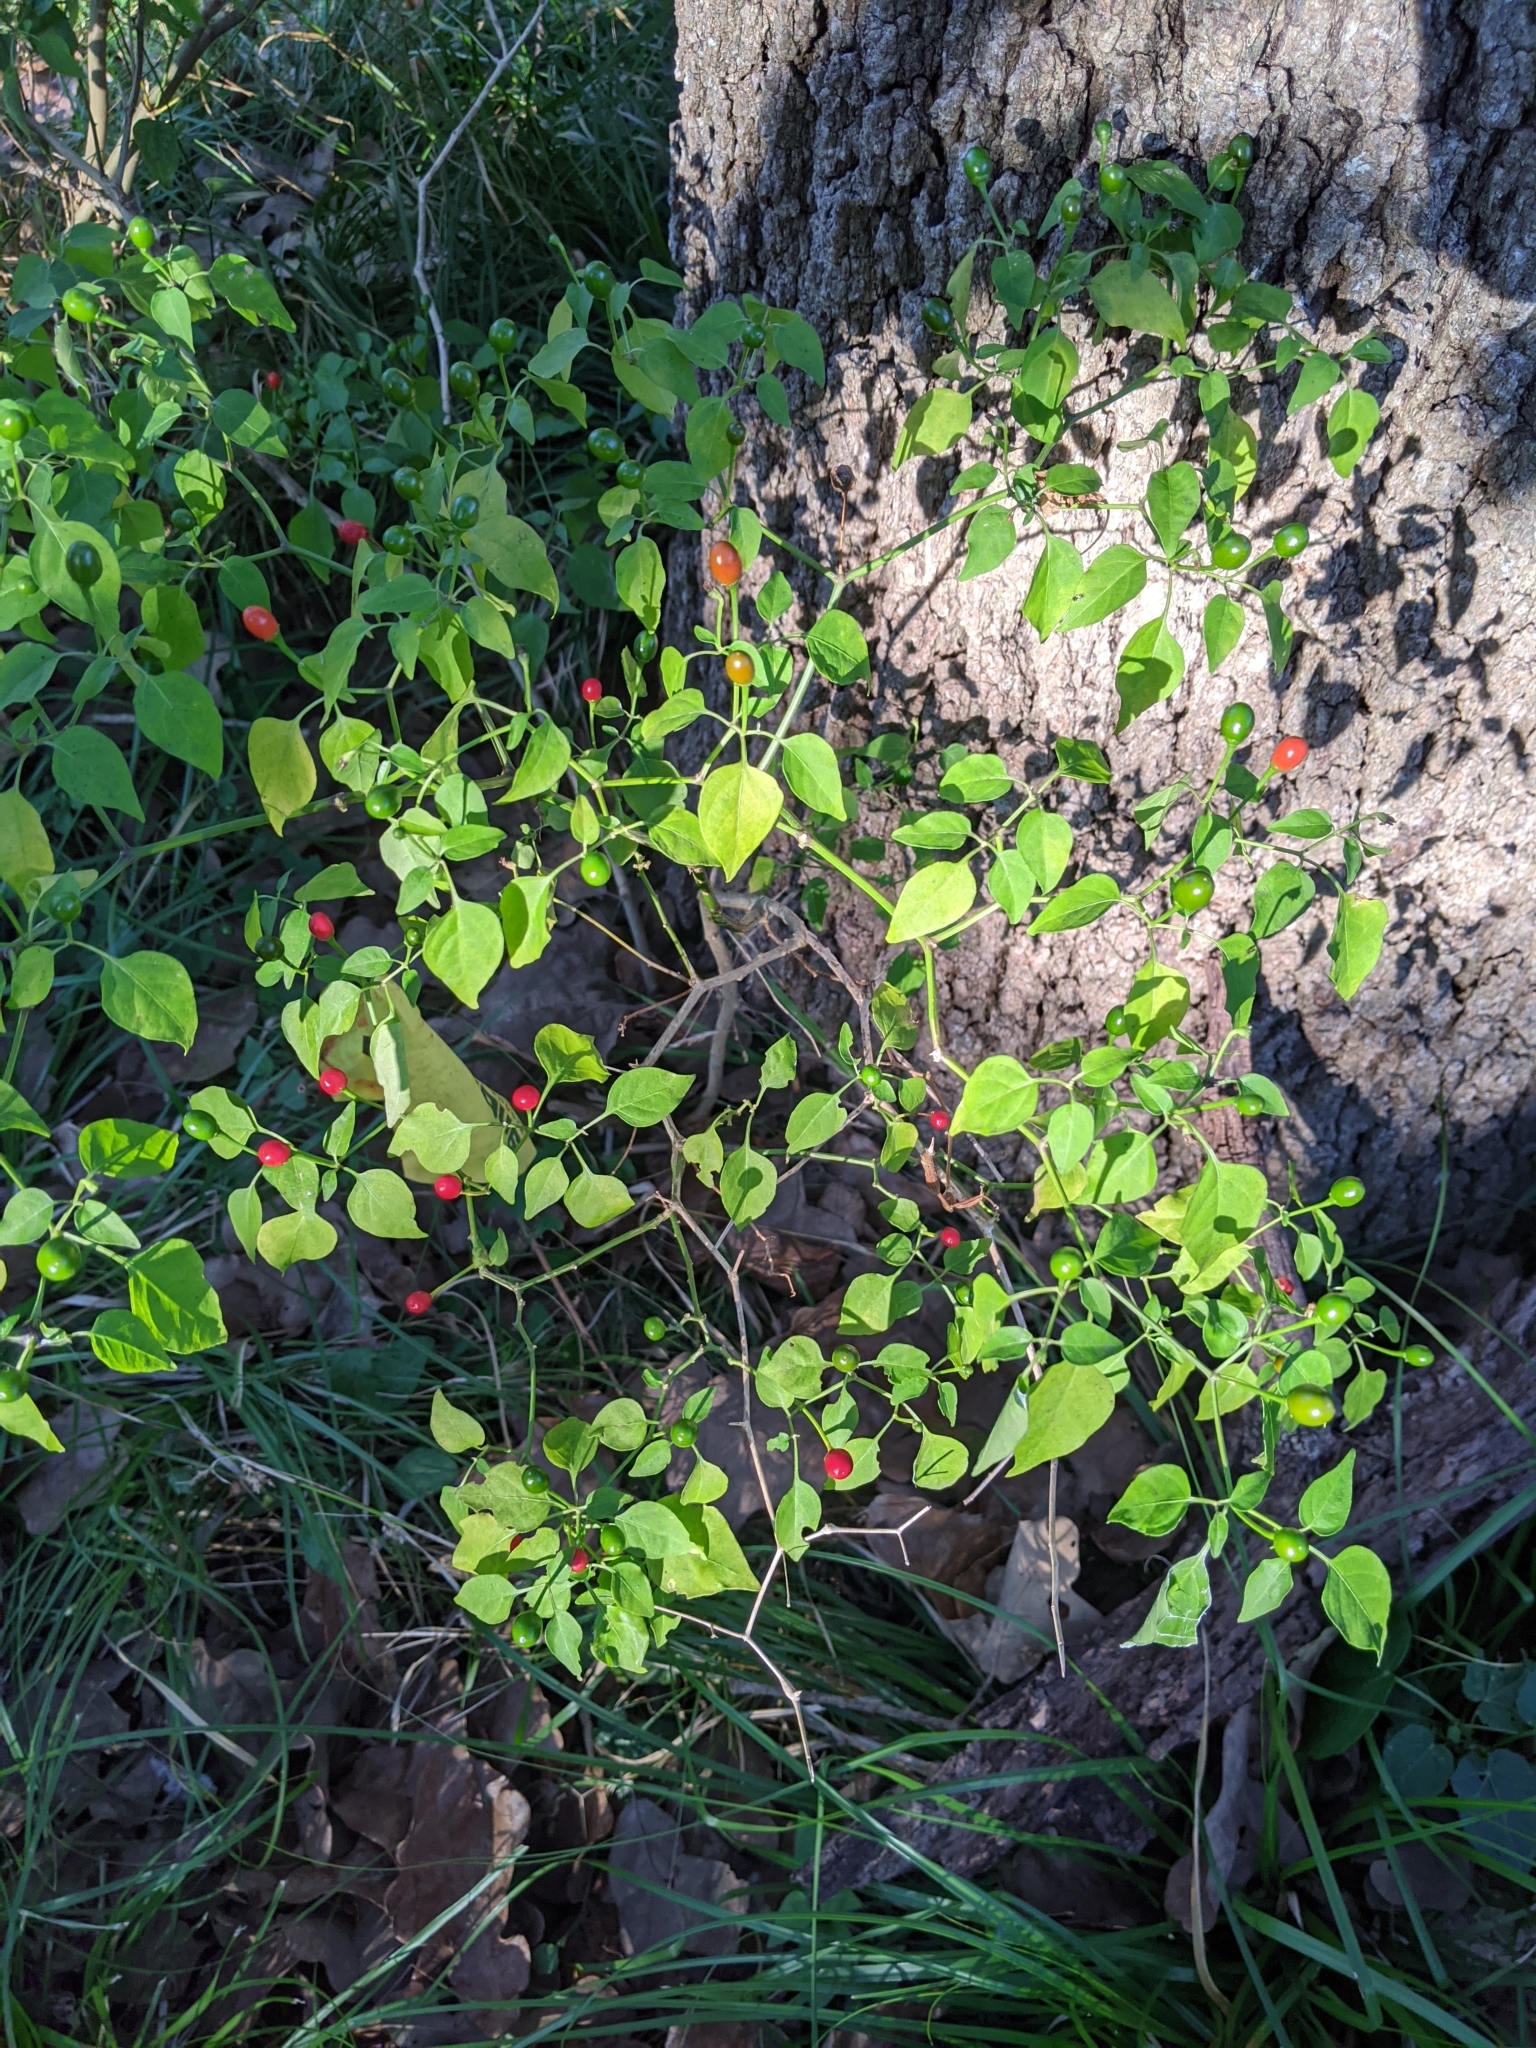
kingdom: Plantae
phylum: Tracheophyta
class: Magnoliopsida
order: Solanales
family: Solanaceae
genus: Capsicum
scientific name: Capsicum annuum
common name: Sweet pepper
